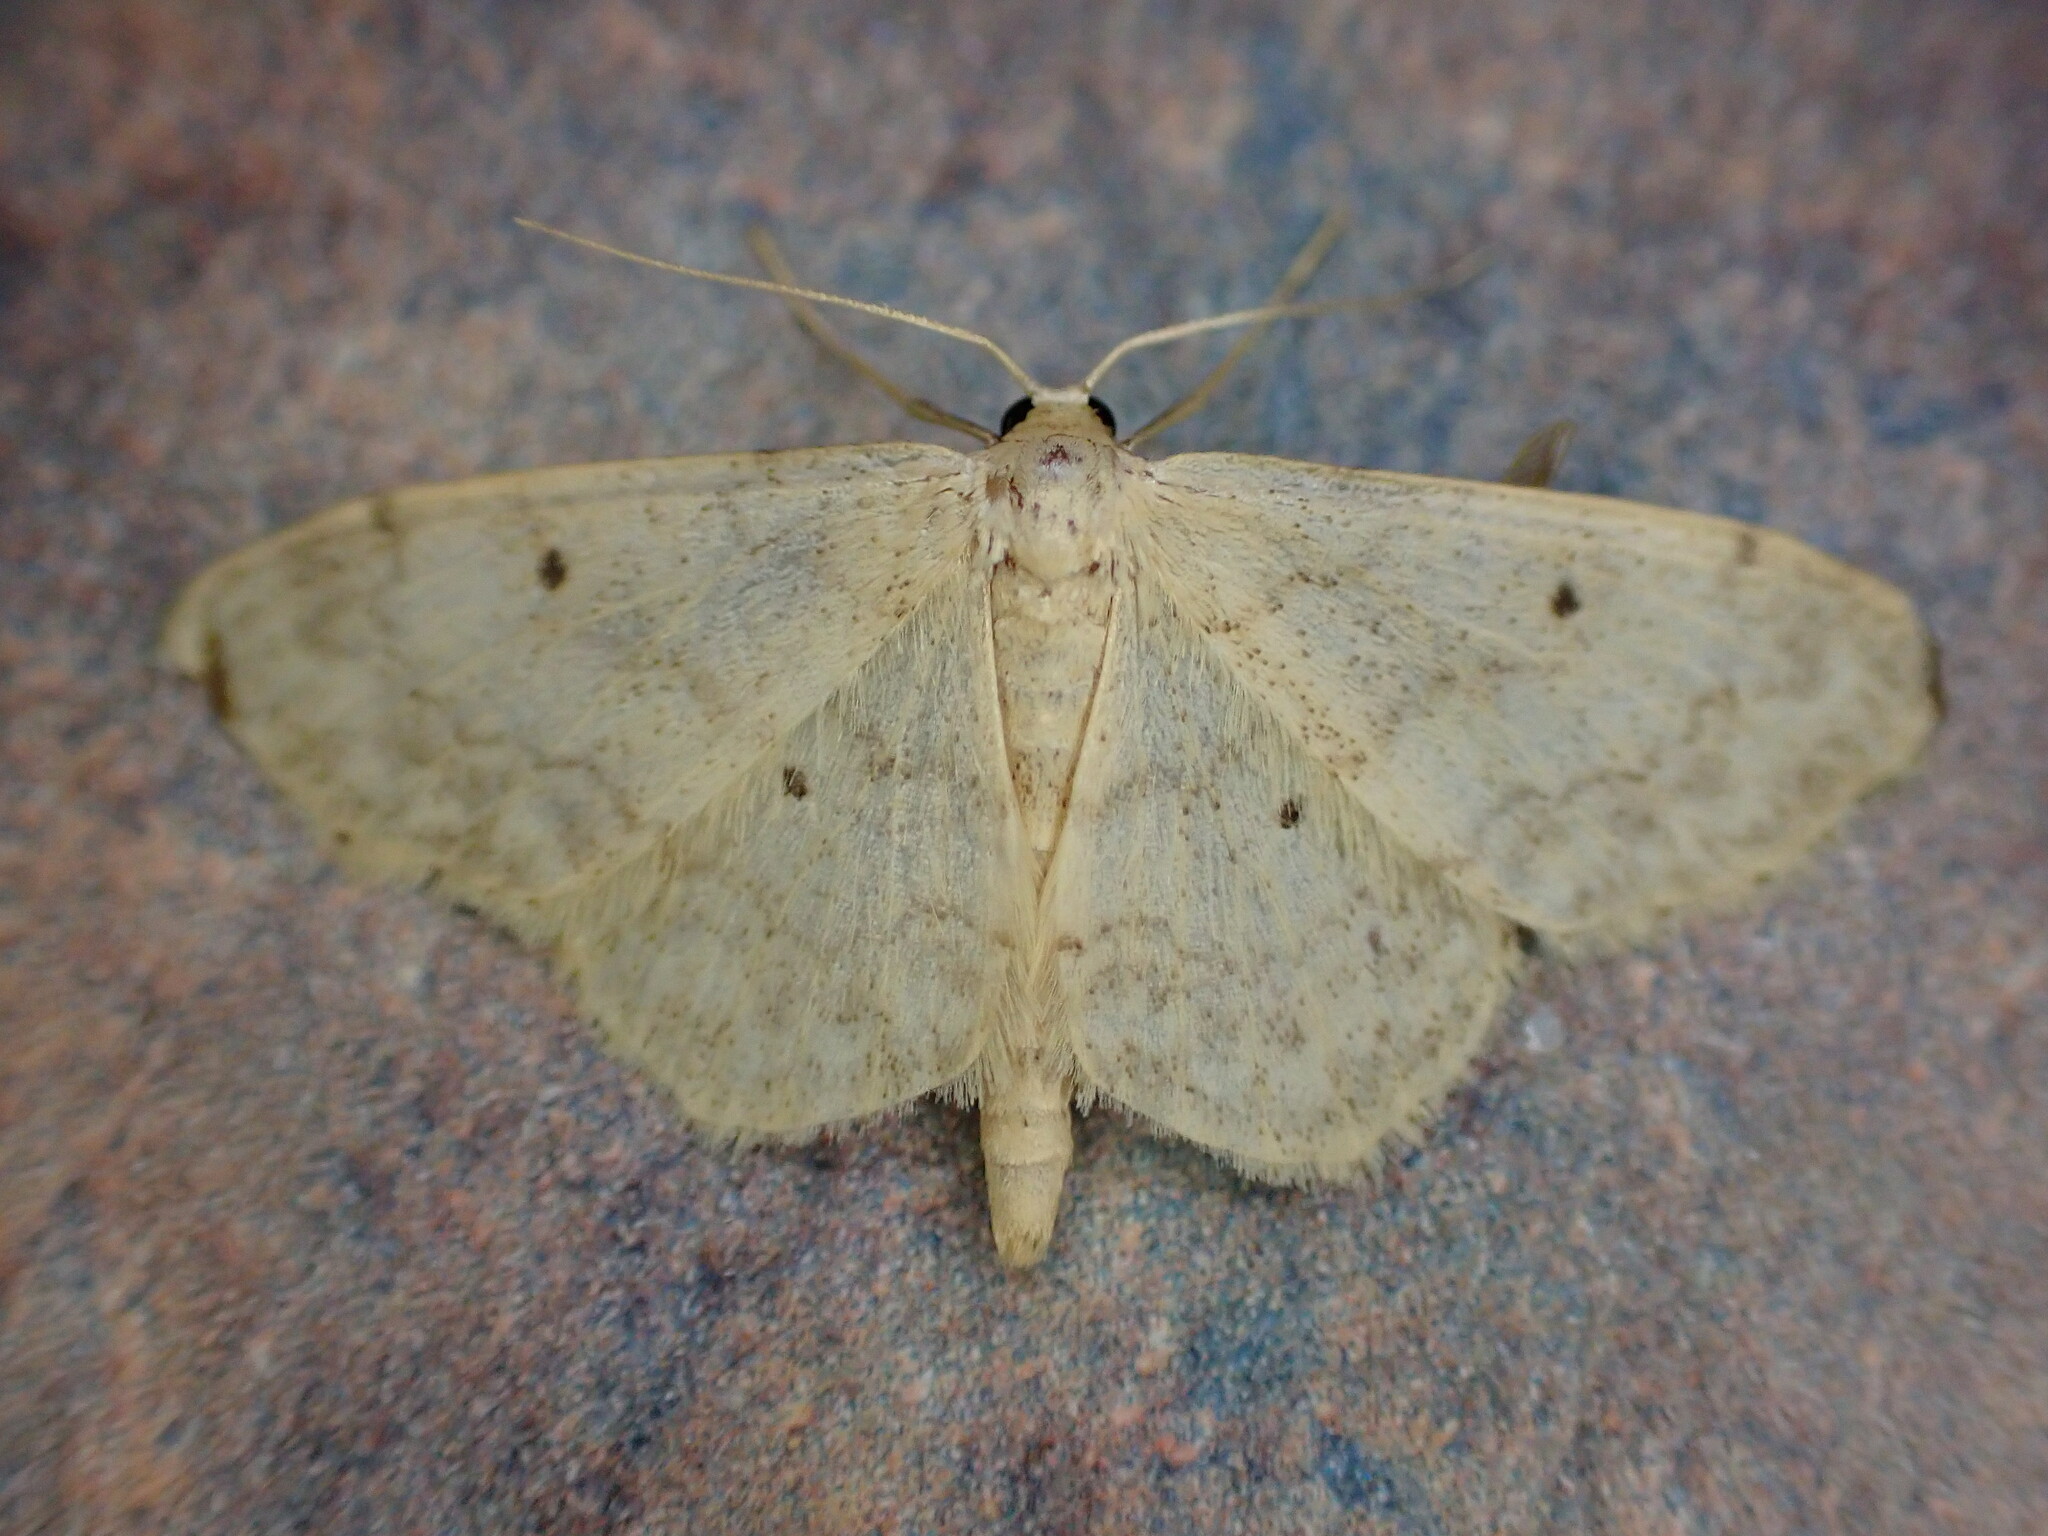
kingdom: Animalia
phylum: Arthropoda
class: Insecta
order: Lepidoptera
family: Geometridae
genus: Idaea
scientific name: Idaea biselata
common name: Small fan-footed wave
